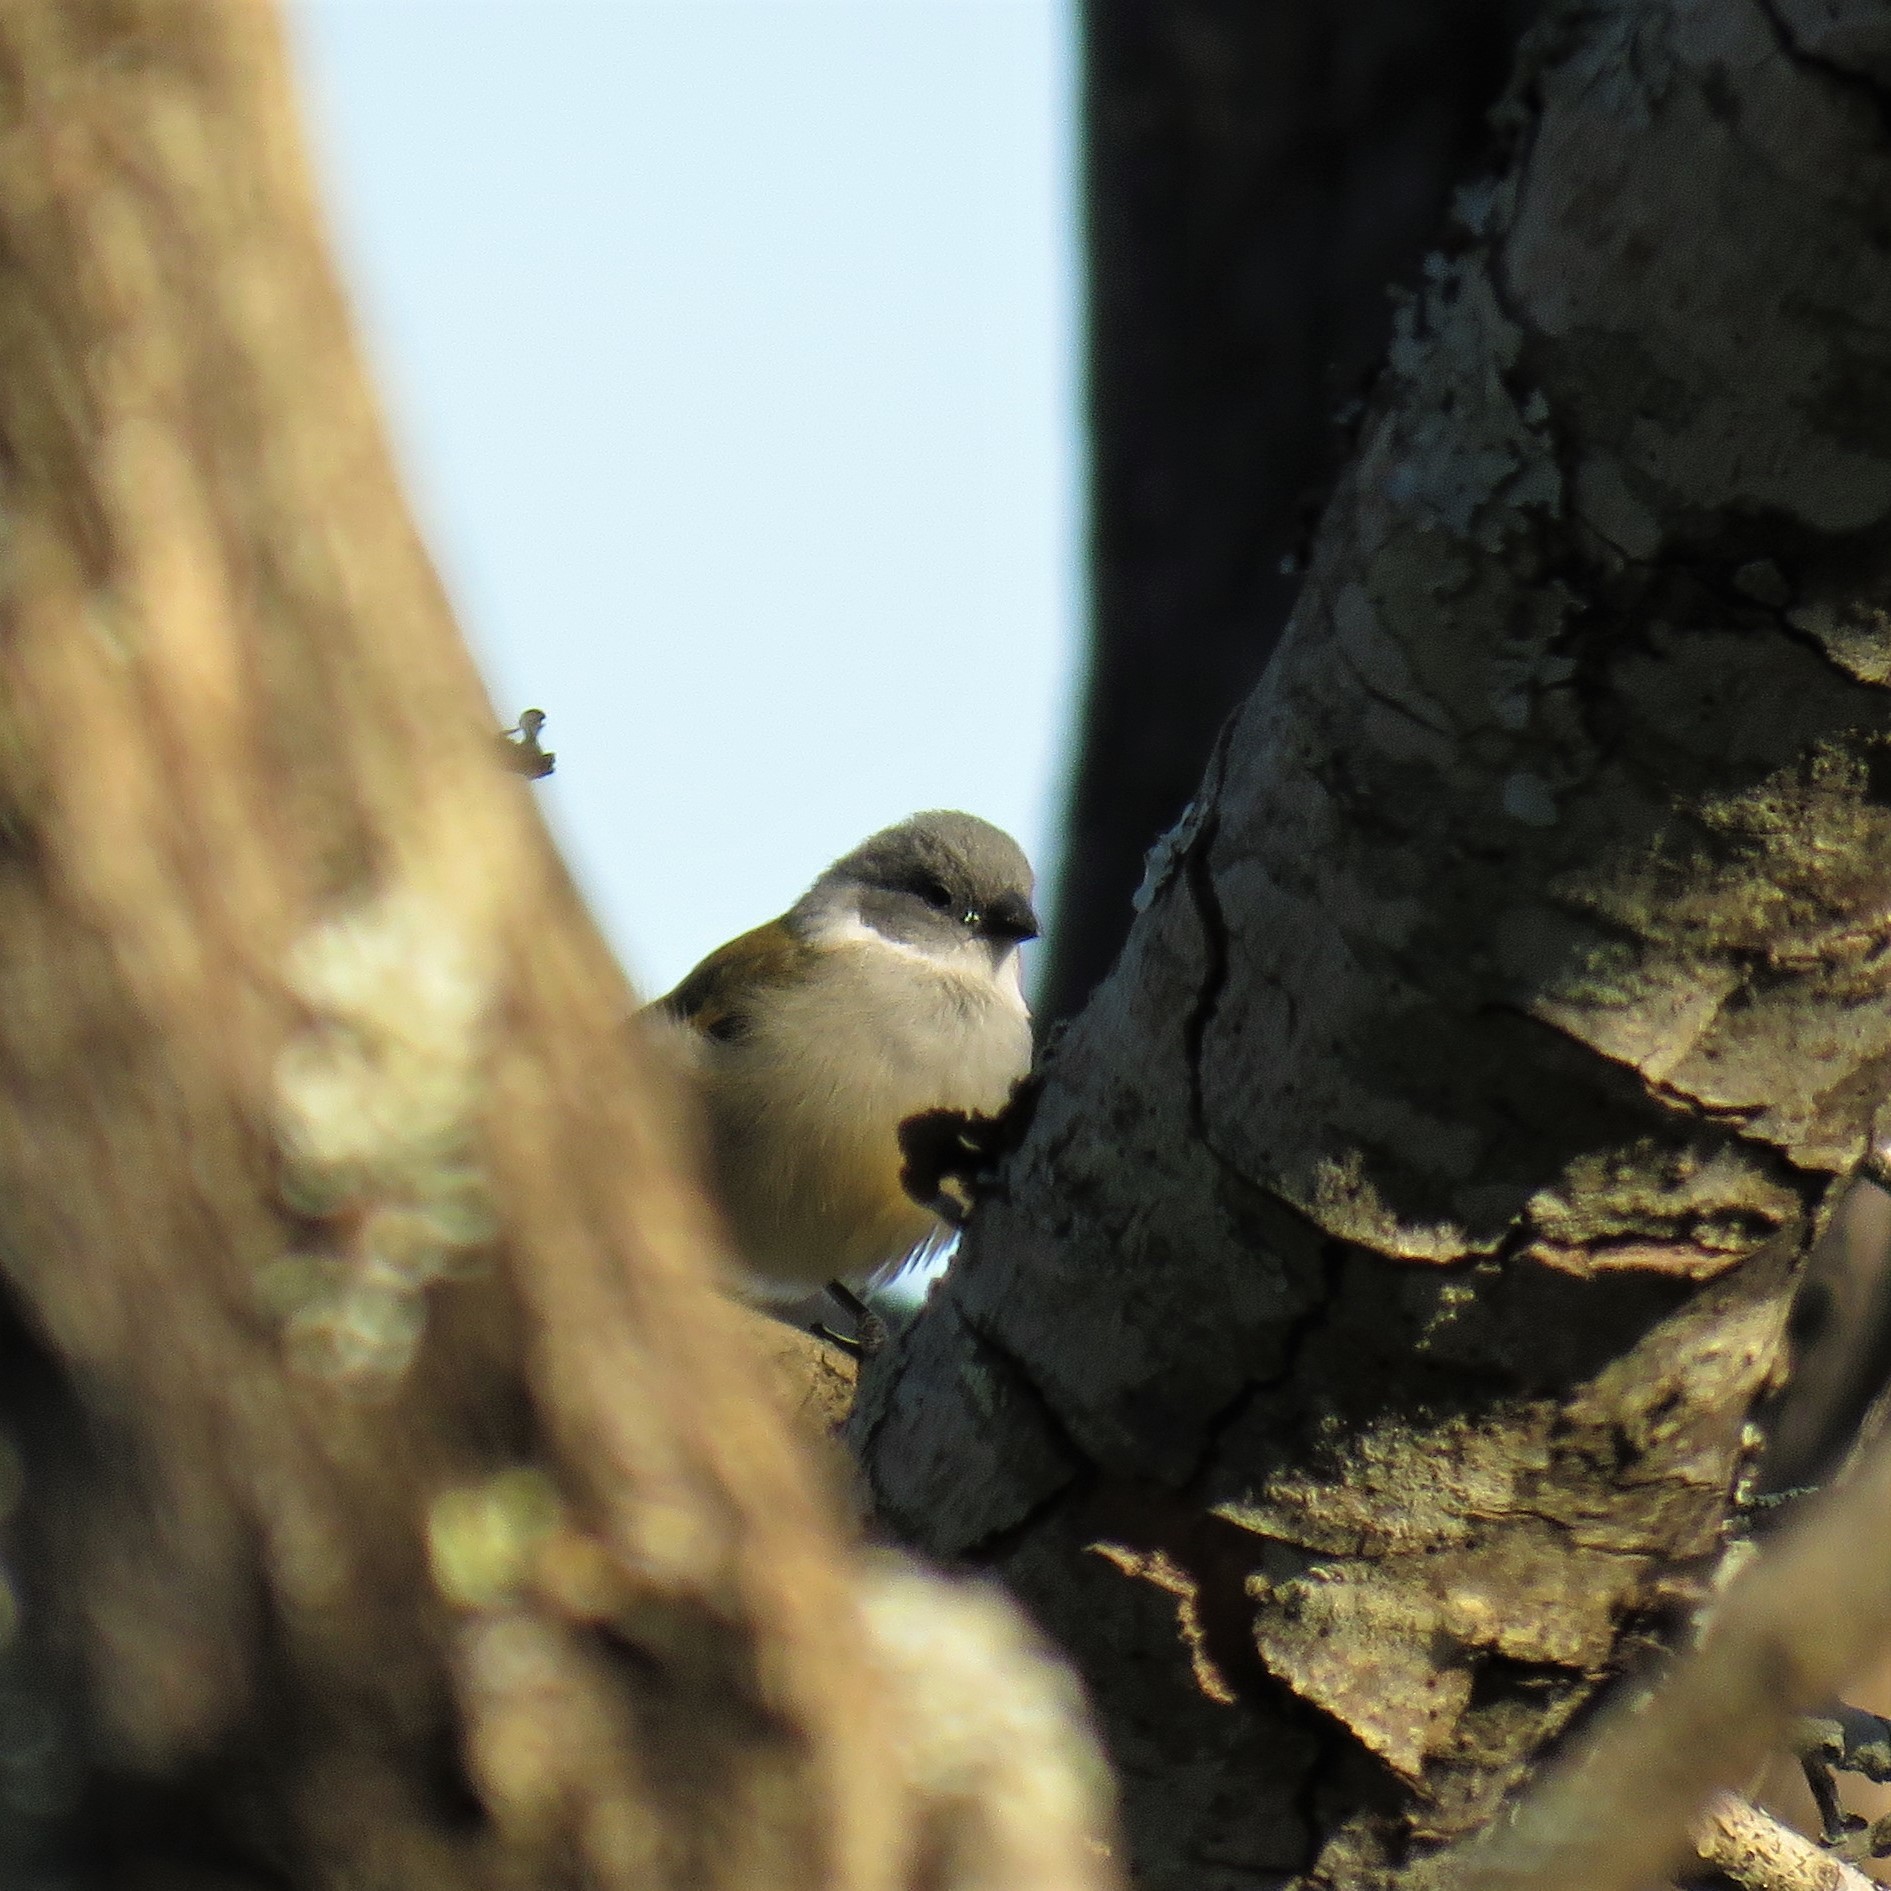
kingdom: Animalia
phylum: Chordata
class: Aves
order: Passeriformes
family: Estrildidae
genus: Coccopygia
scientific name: Coccopygia melanotis
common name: Swee waxbill
